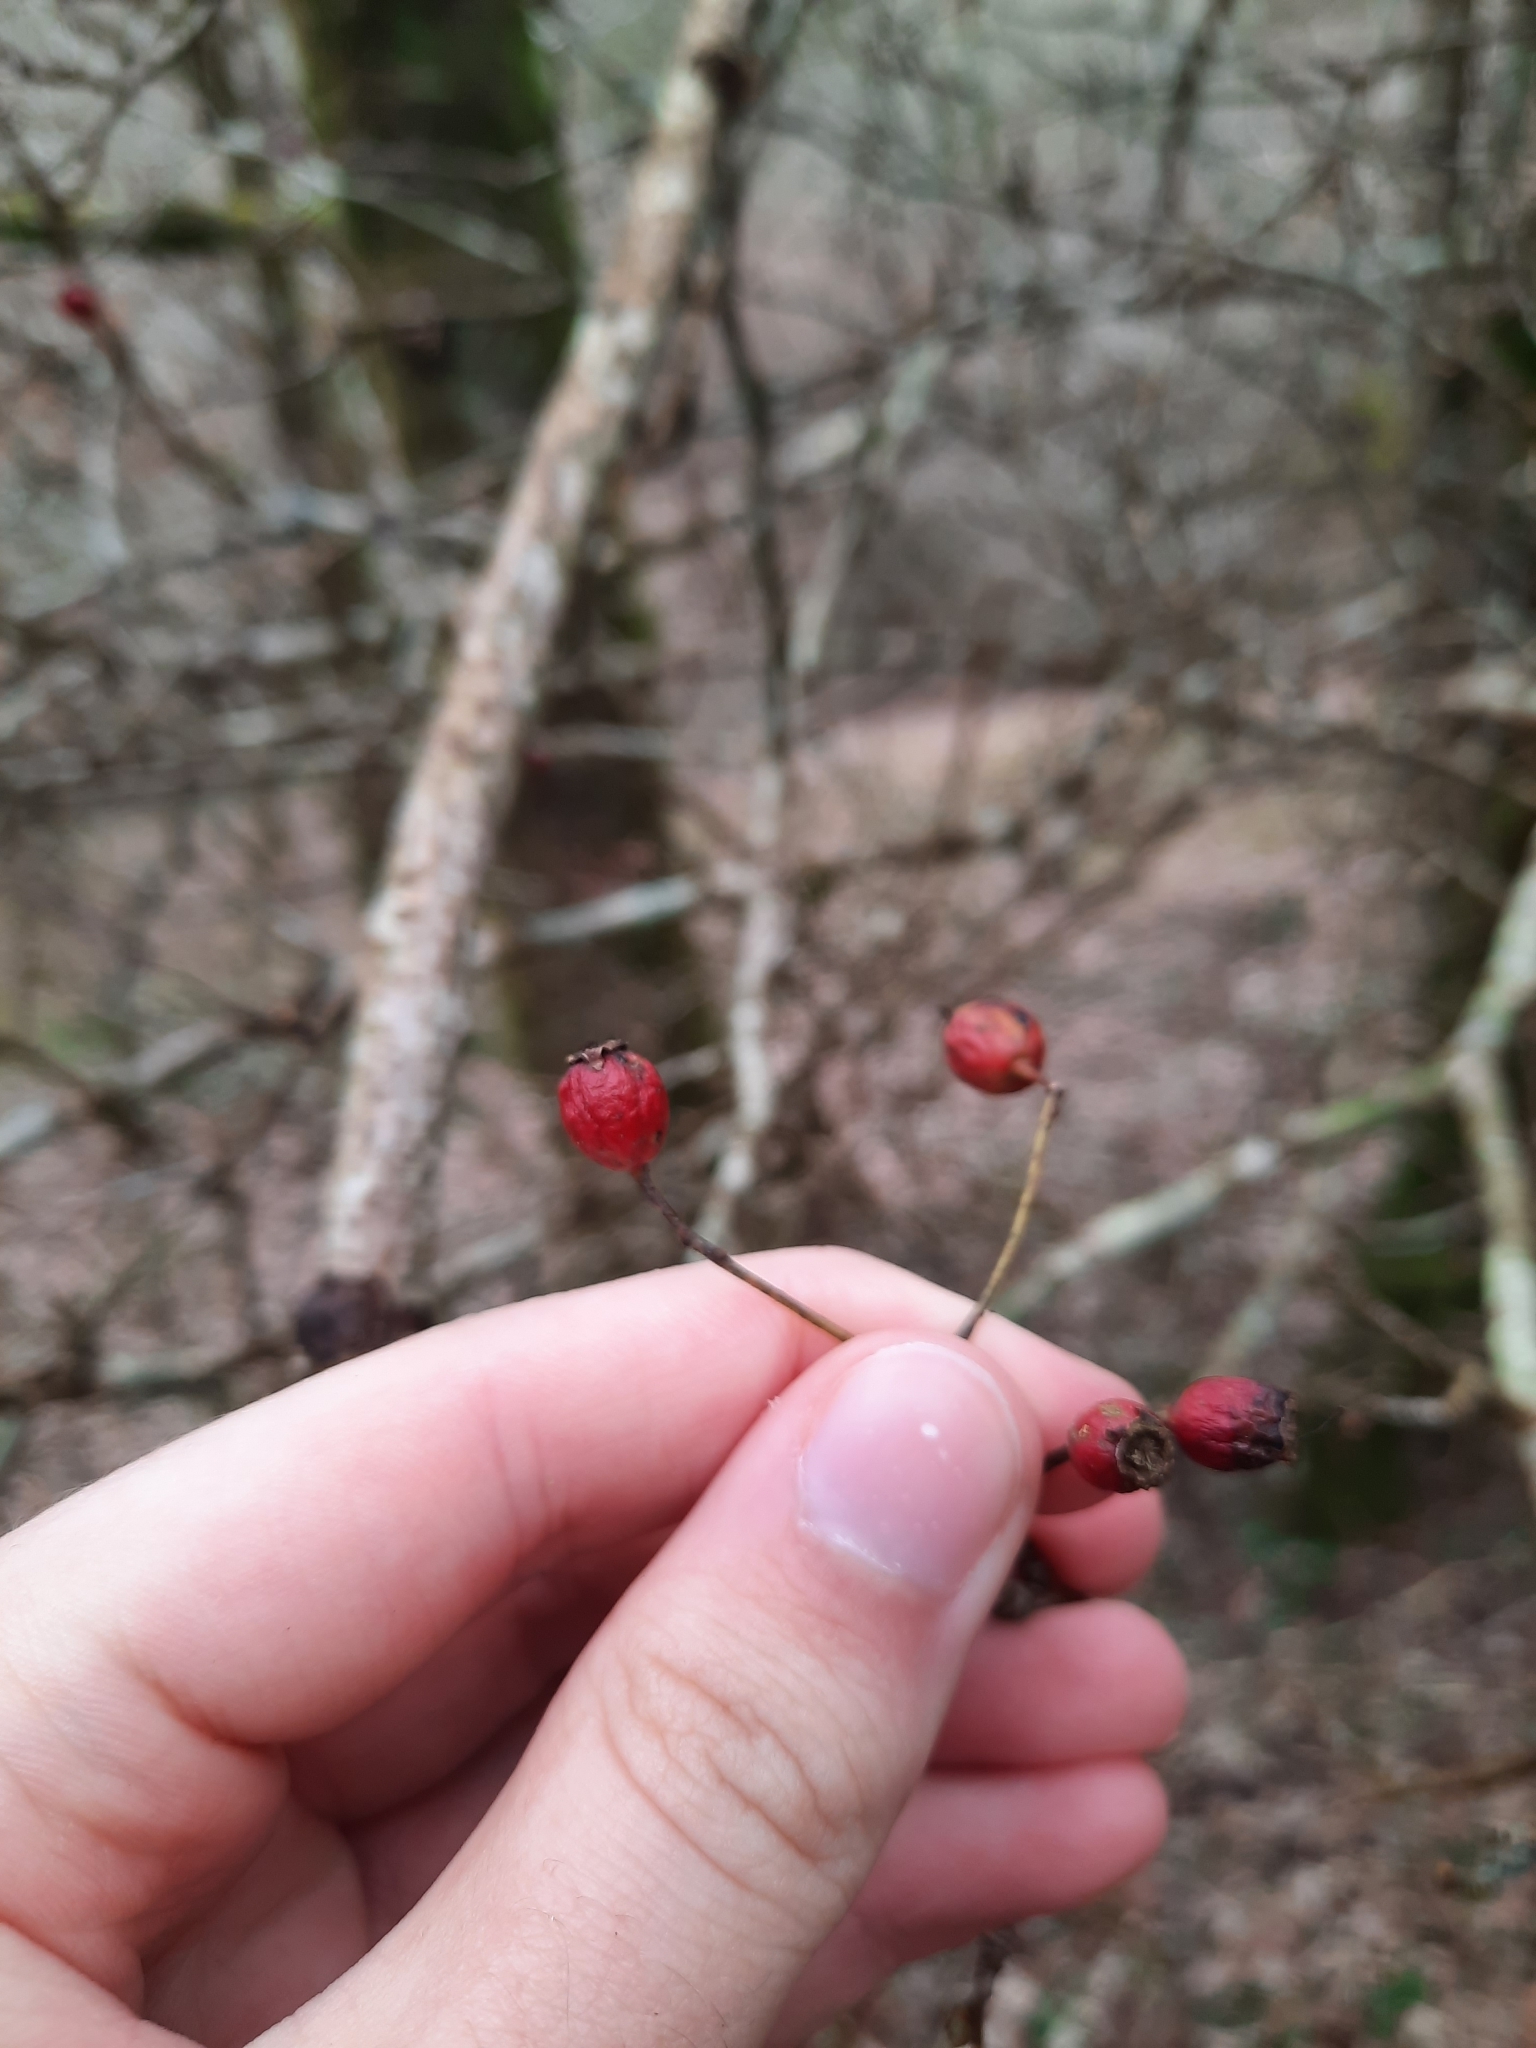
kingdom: Plantae
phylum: Tracheophyta
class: Magnoliopsida
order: Rosales
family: Rosaceae
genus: Crataegus
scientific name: Crataegus monogyna
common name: Hawthorn
